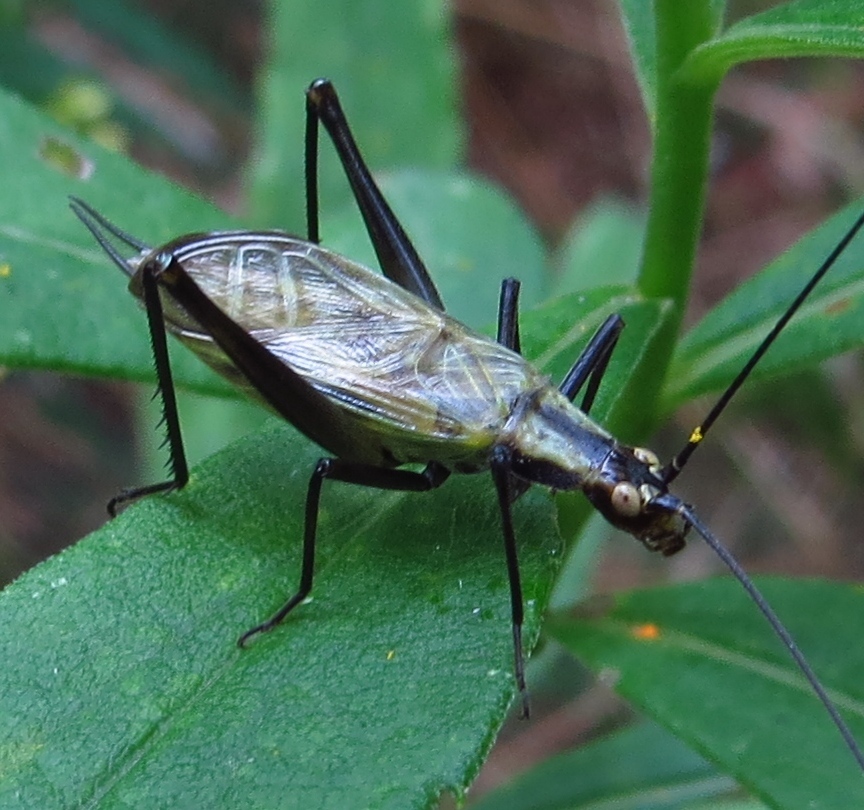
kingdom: Animalia
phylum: Arthropoda
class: Insecta
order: Orthoptera
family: Gryllidae
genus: Oecanthus
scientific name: Oecanthus nigricornis
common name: Black-horned tree cricket
